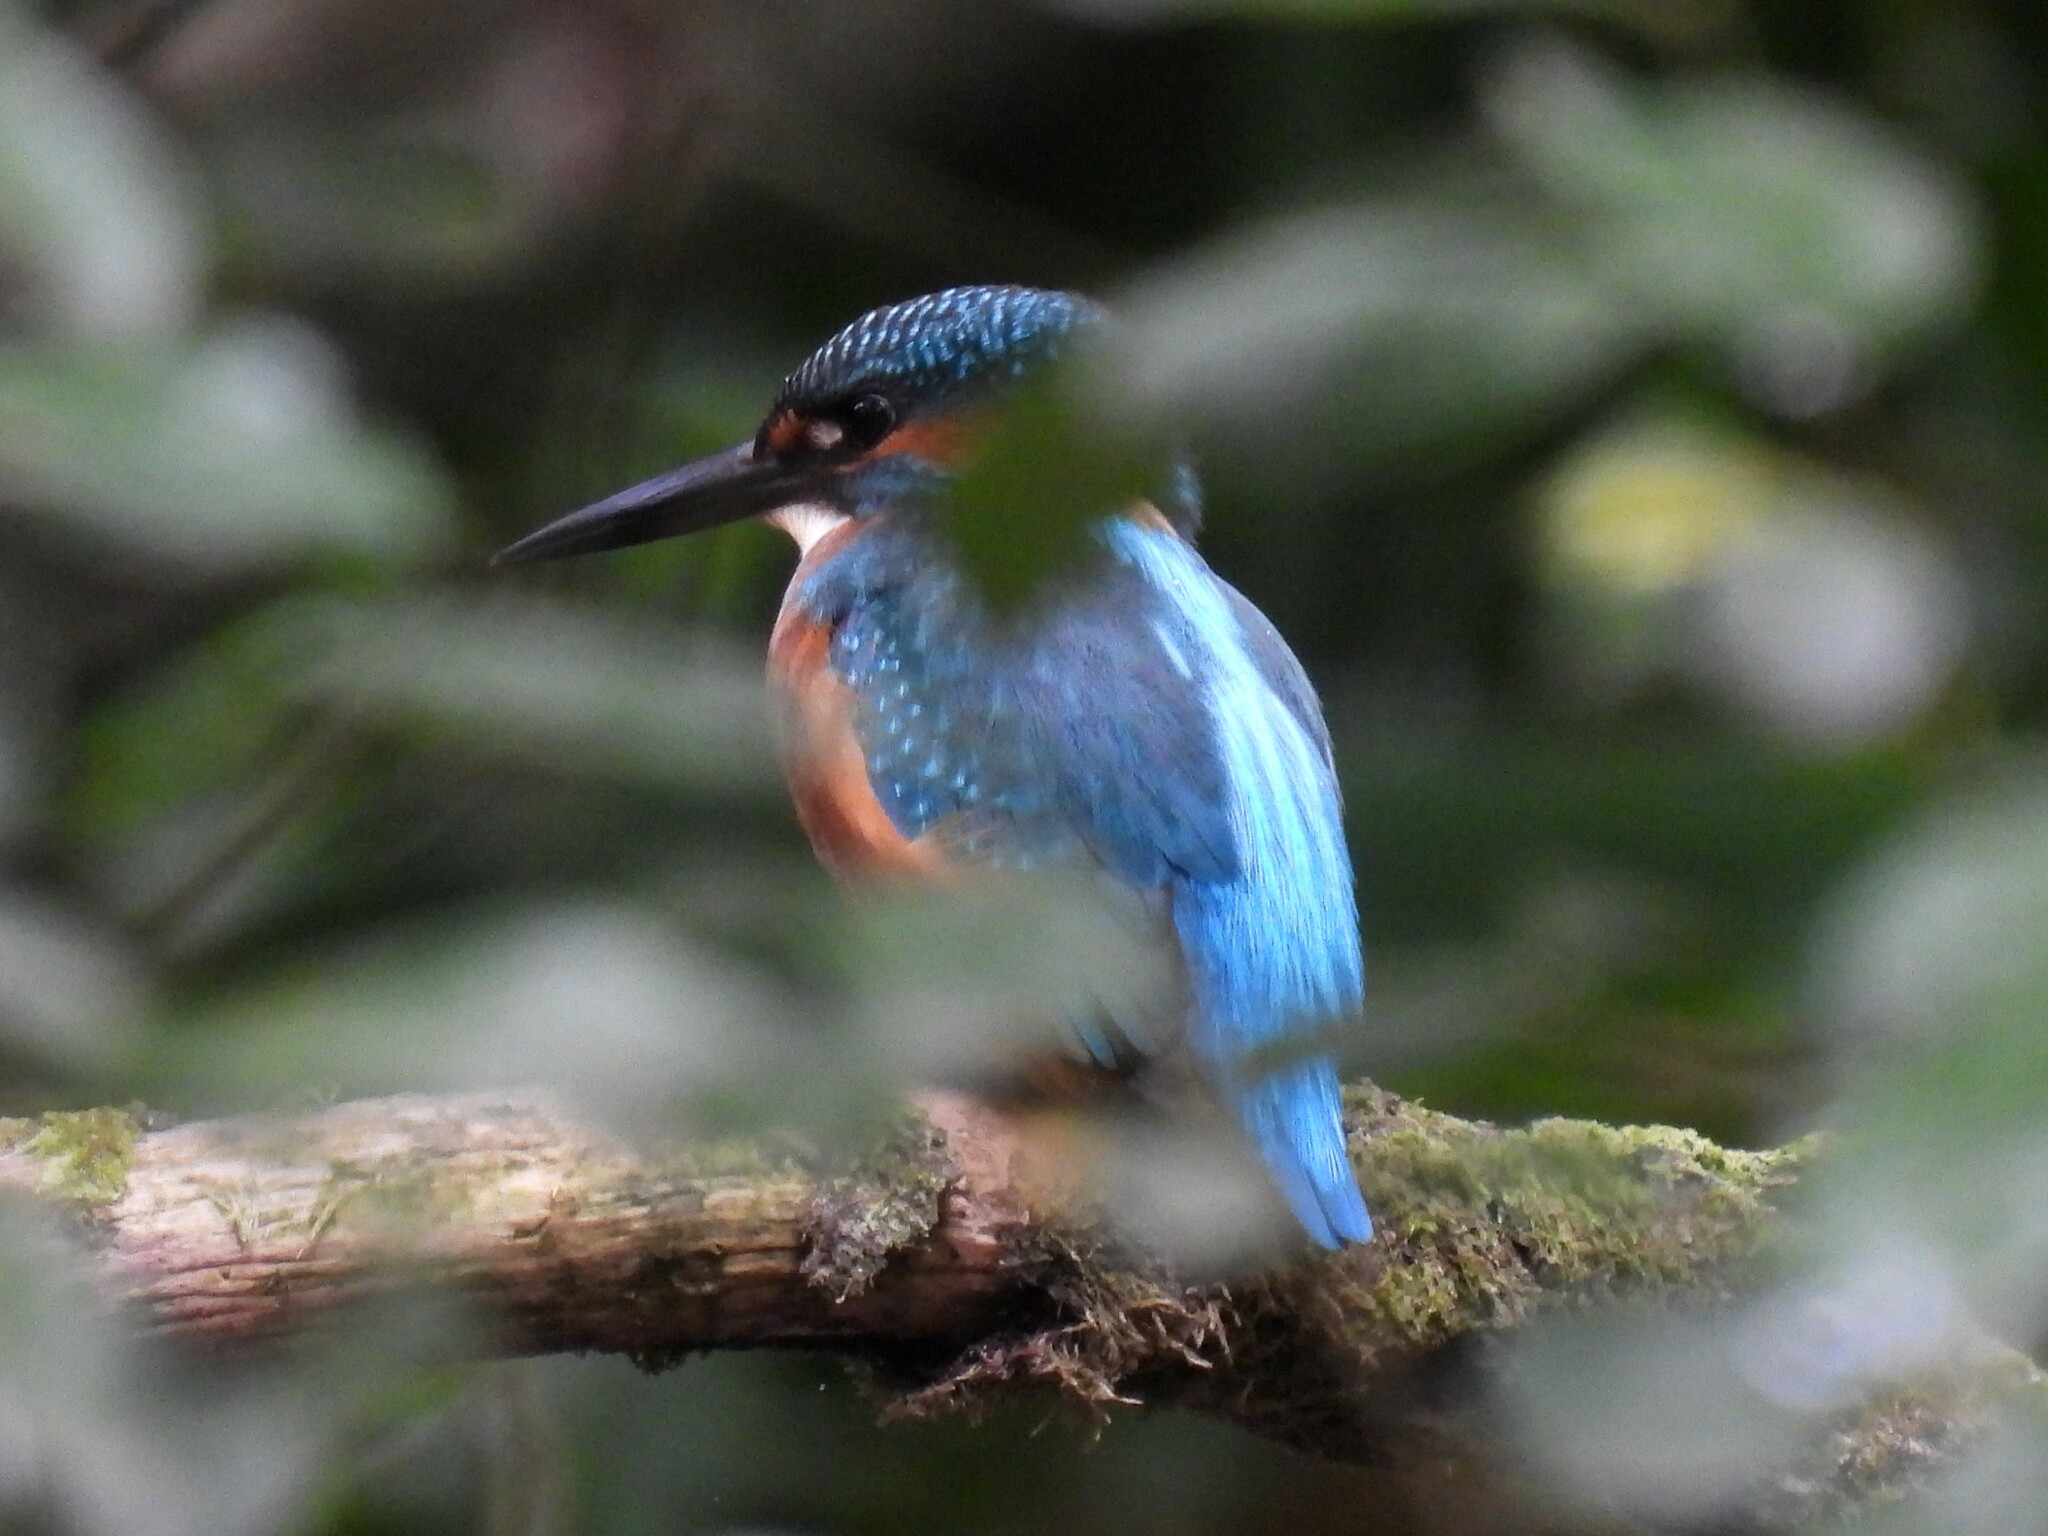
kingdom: Animalia
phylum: Chordata
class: Aves
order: Coraciiformes
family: Alcedinidae
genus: Alcedo
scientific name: Alcedo atthis
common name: Common kingfisher
